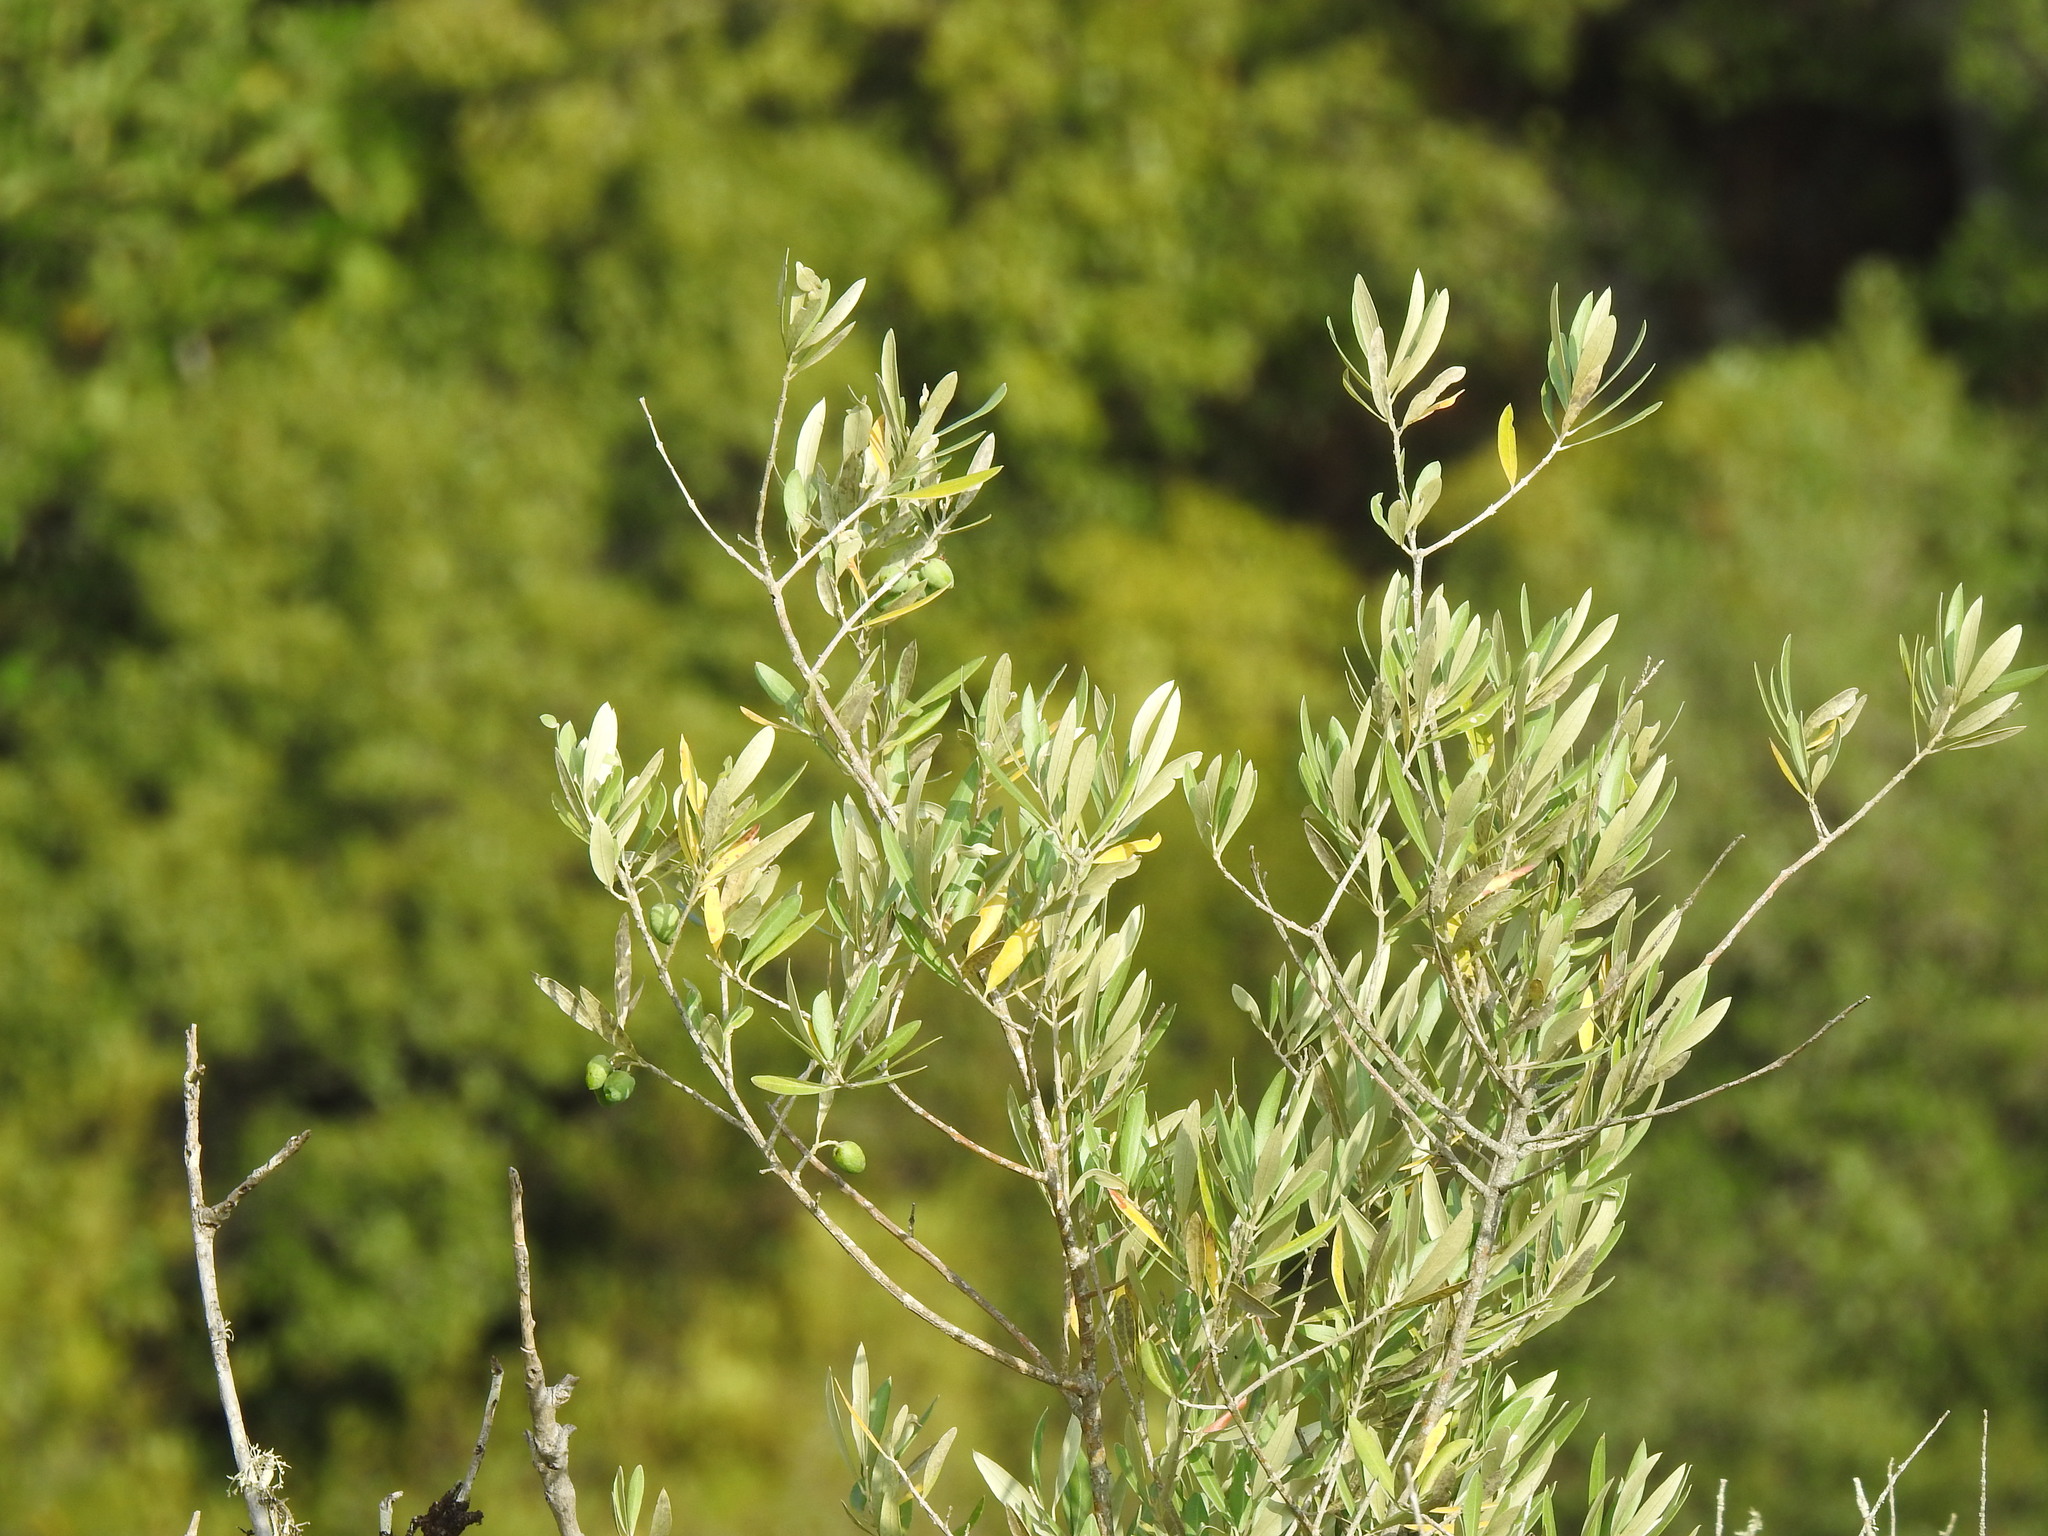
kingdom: Plantae
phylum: Tracheophyta
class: Magnoliopsida
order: Lamiales
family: Oleaceae
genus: Olea
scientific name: Olea europaea
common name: Olive
